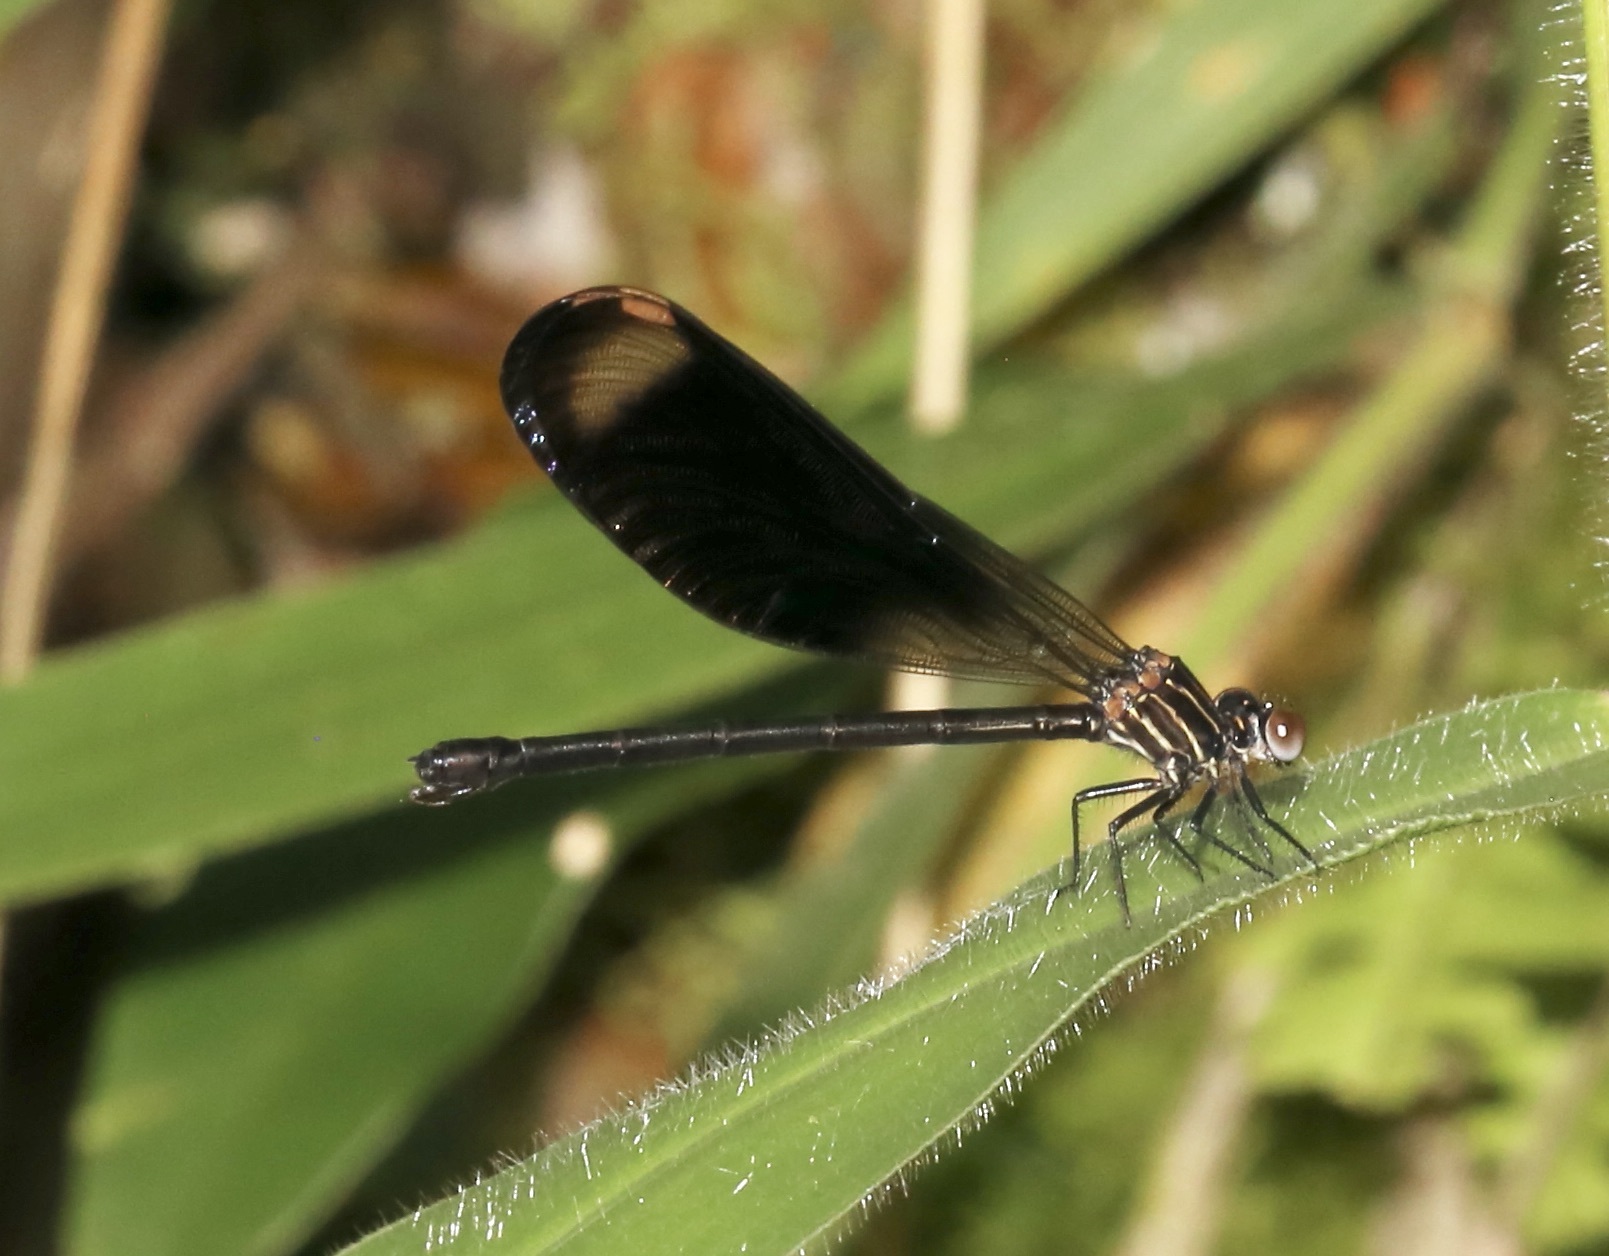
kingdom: Animalia
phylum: Arthropoda
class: Insecta
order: Odonata
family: Polythoridae
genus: Polythore
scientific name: Polythore gigantea
